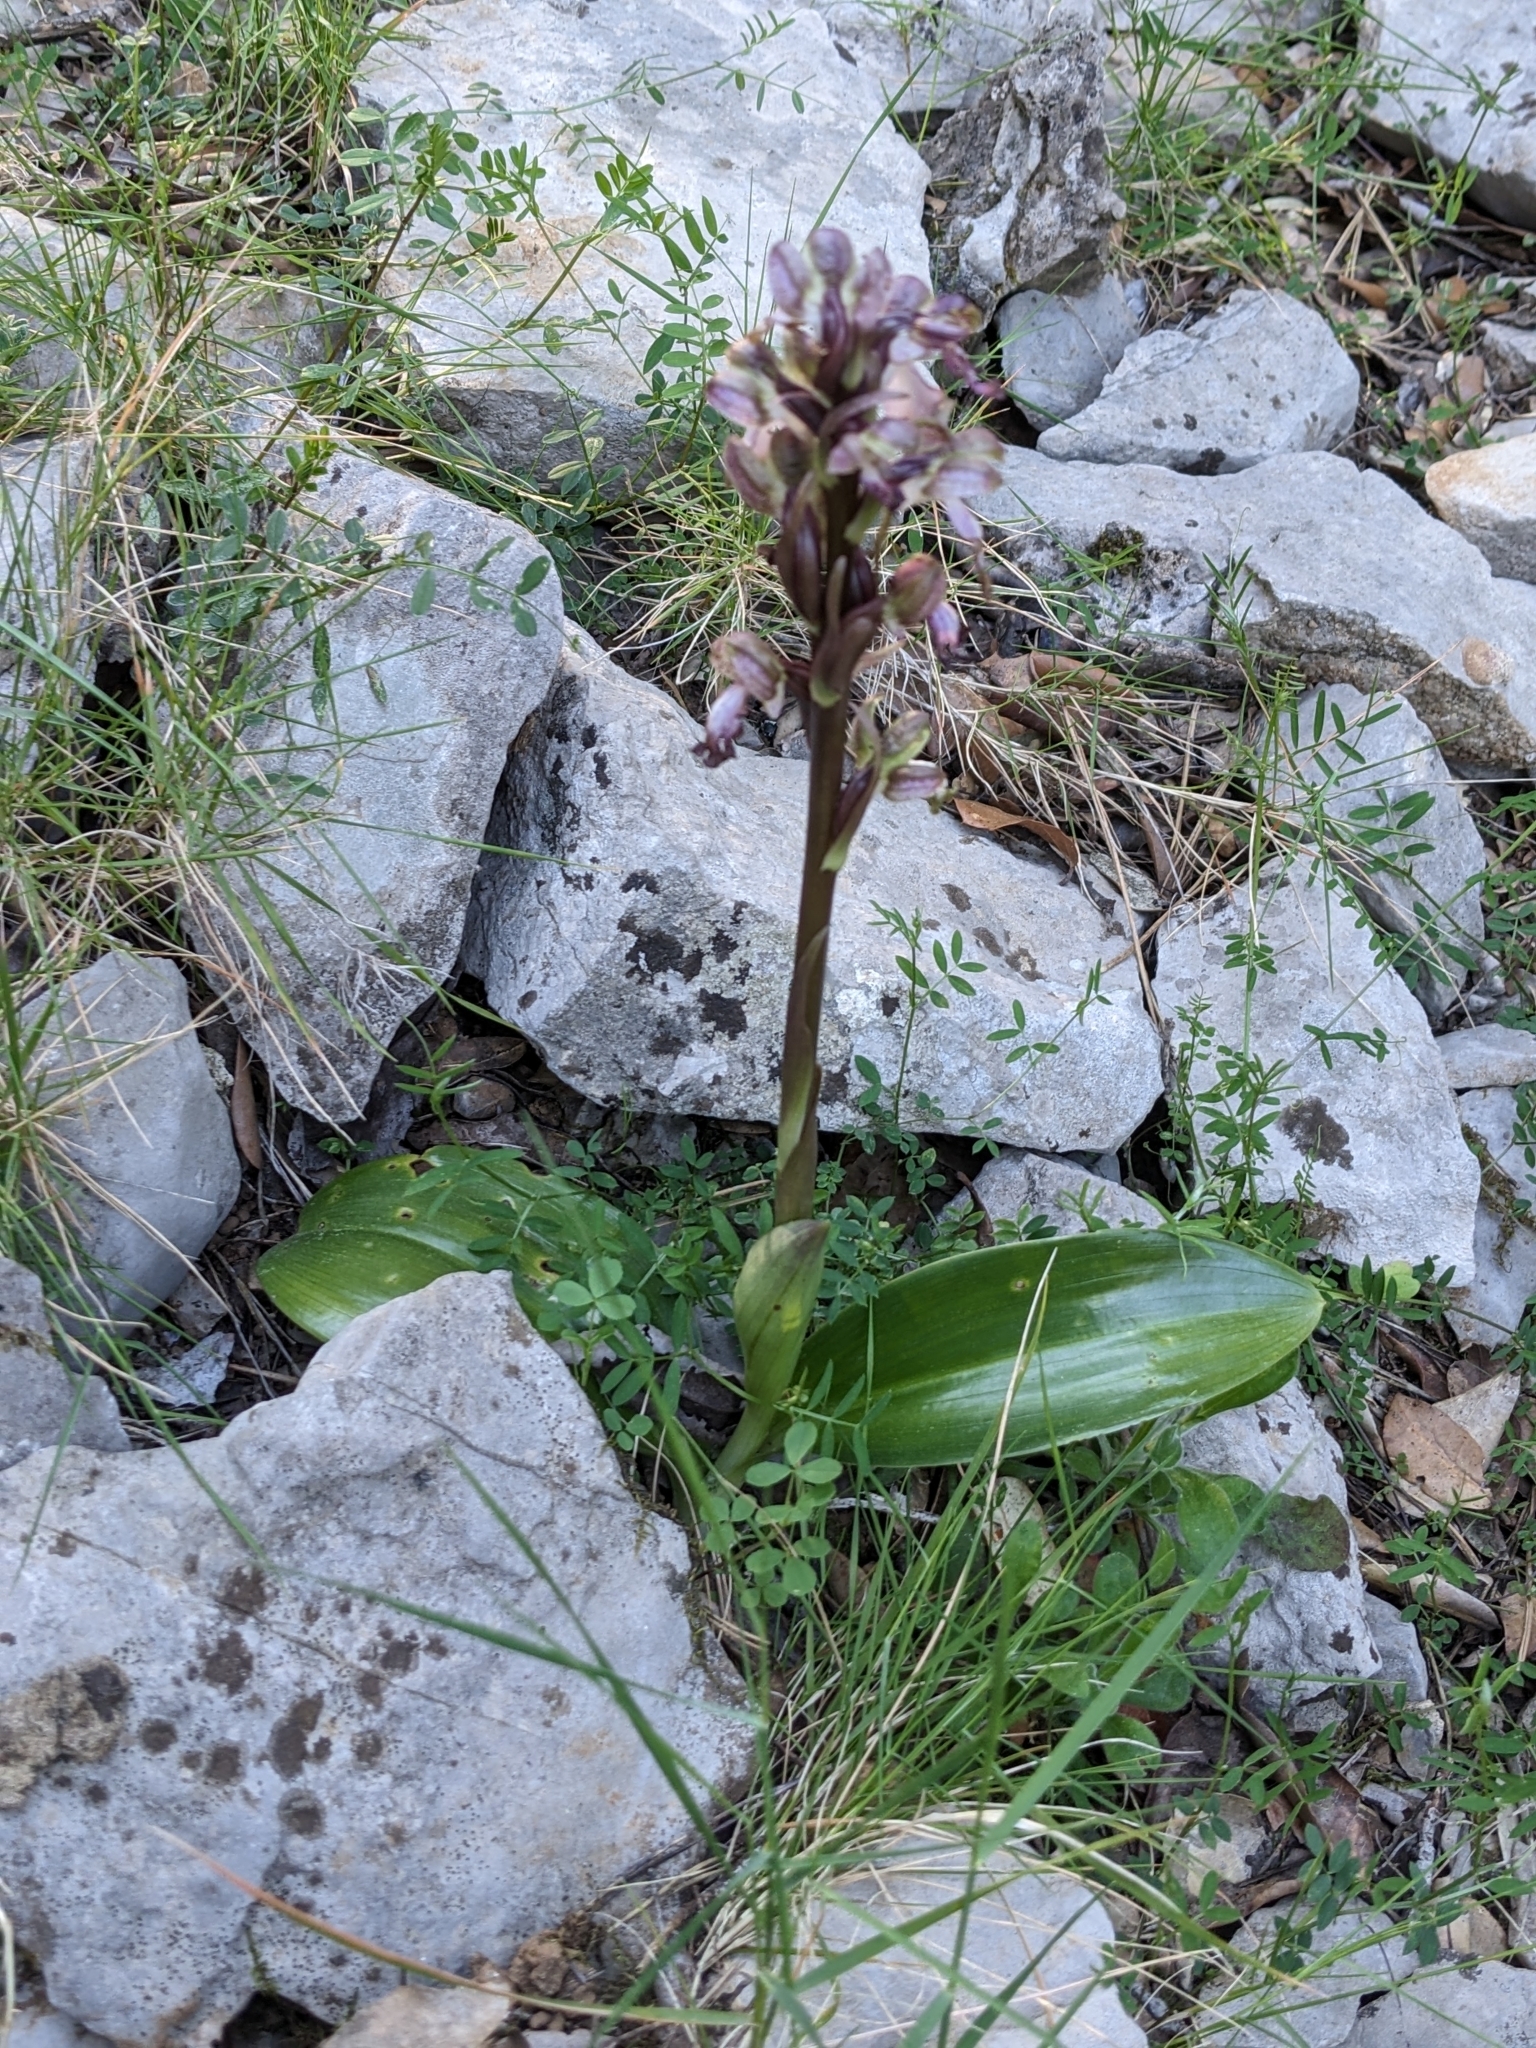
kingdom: Plantae
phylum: Tracheophyta
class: Liliopsida
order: Asparagales
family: Orchidaceae
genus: Himantoglossum
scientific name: Himantoglossum robertianum
